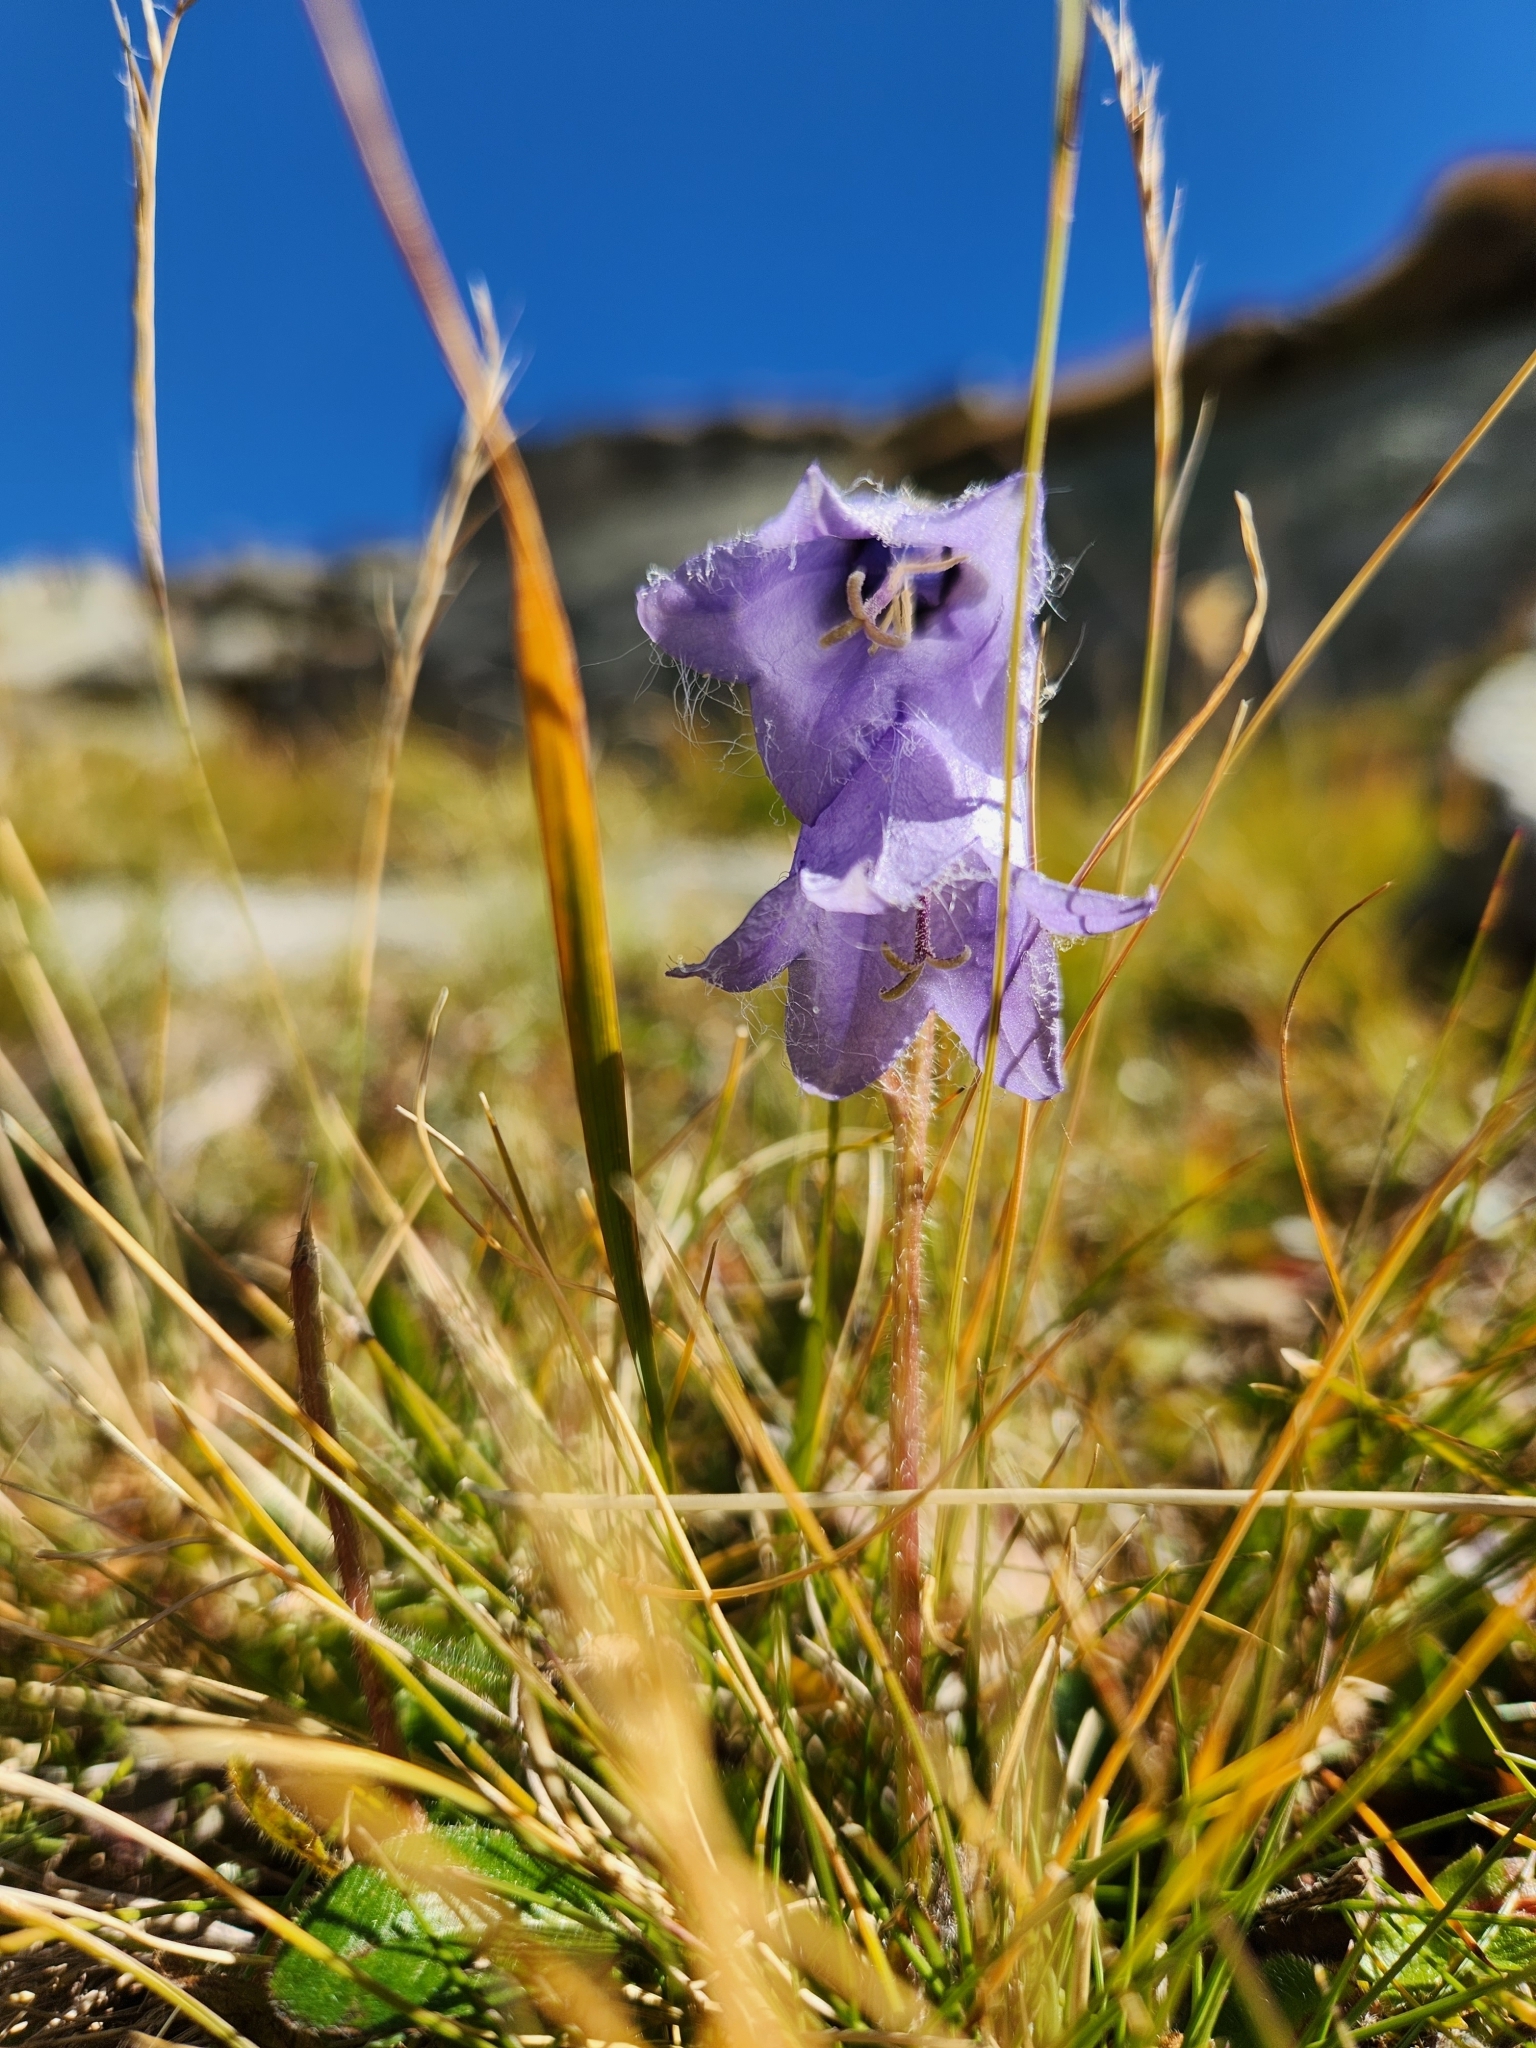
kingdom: Plantae
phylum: Tracheophyta
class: Magnoliopsida
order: Asterales
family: Campanulaceae
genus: Campanula
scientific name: Campanula barbata
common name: Bearded bellflower
